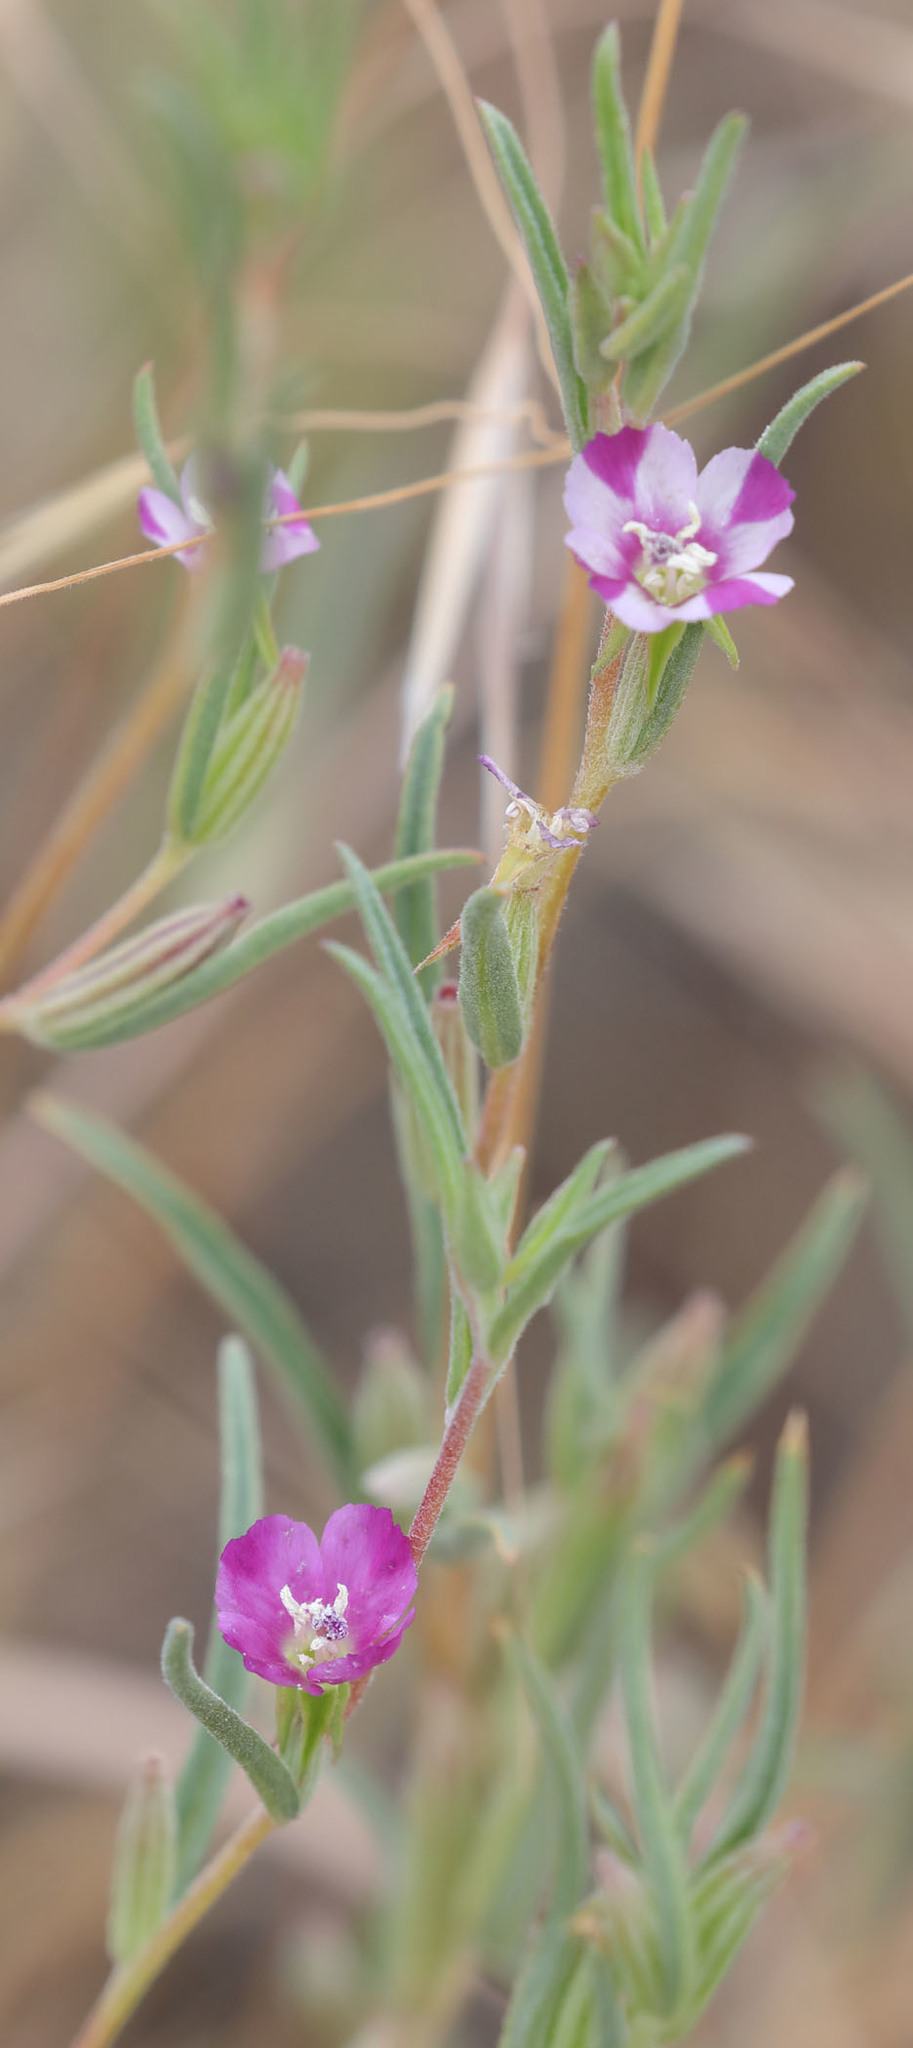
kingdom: Plantae
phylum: Tracheophyta
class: Magnoliopsida
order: Myrtales
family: Onagraceae
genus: Clarkia
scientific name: Clarkia purpurea
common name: Purple clarkia
